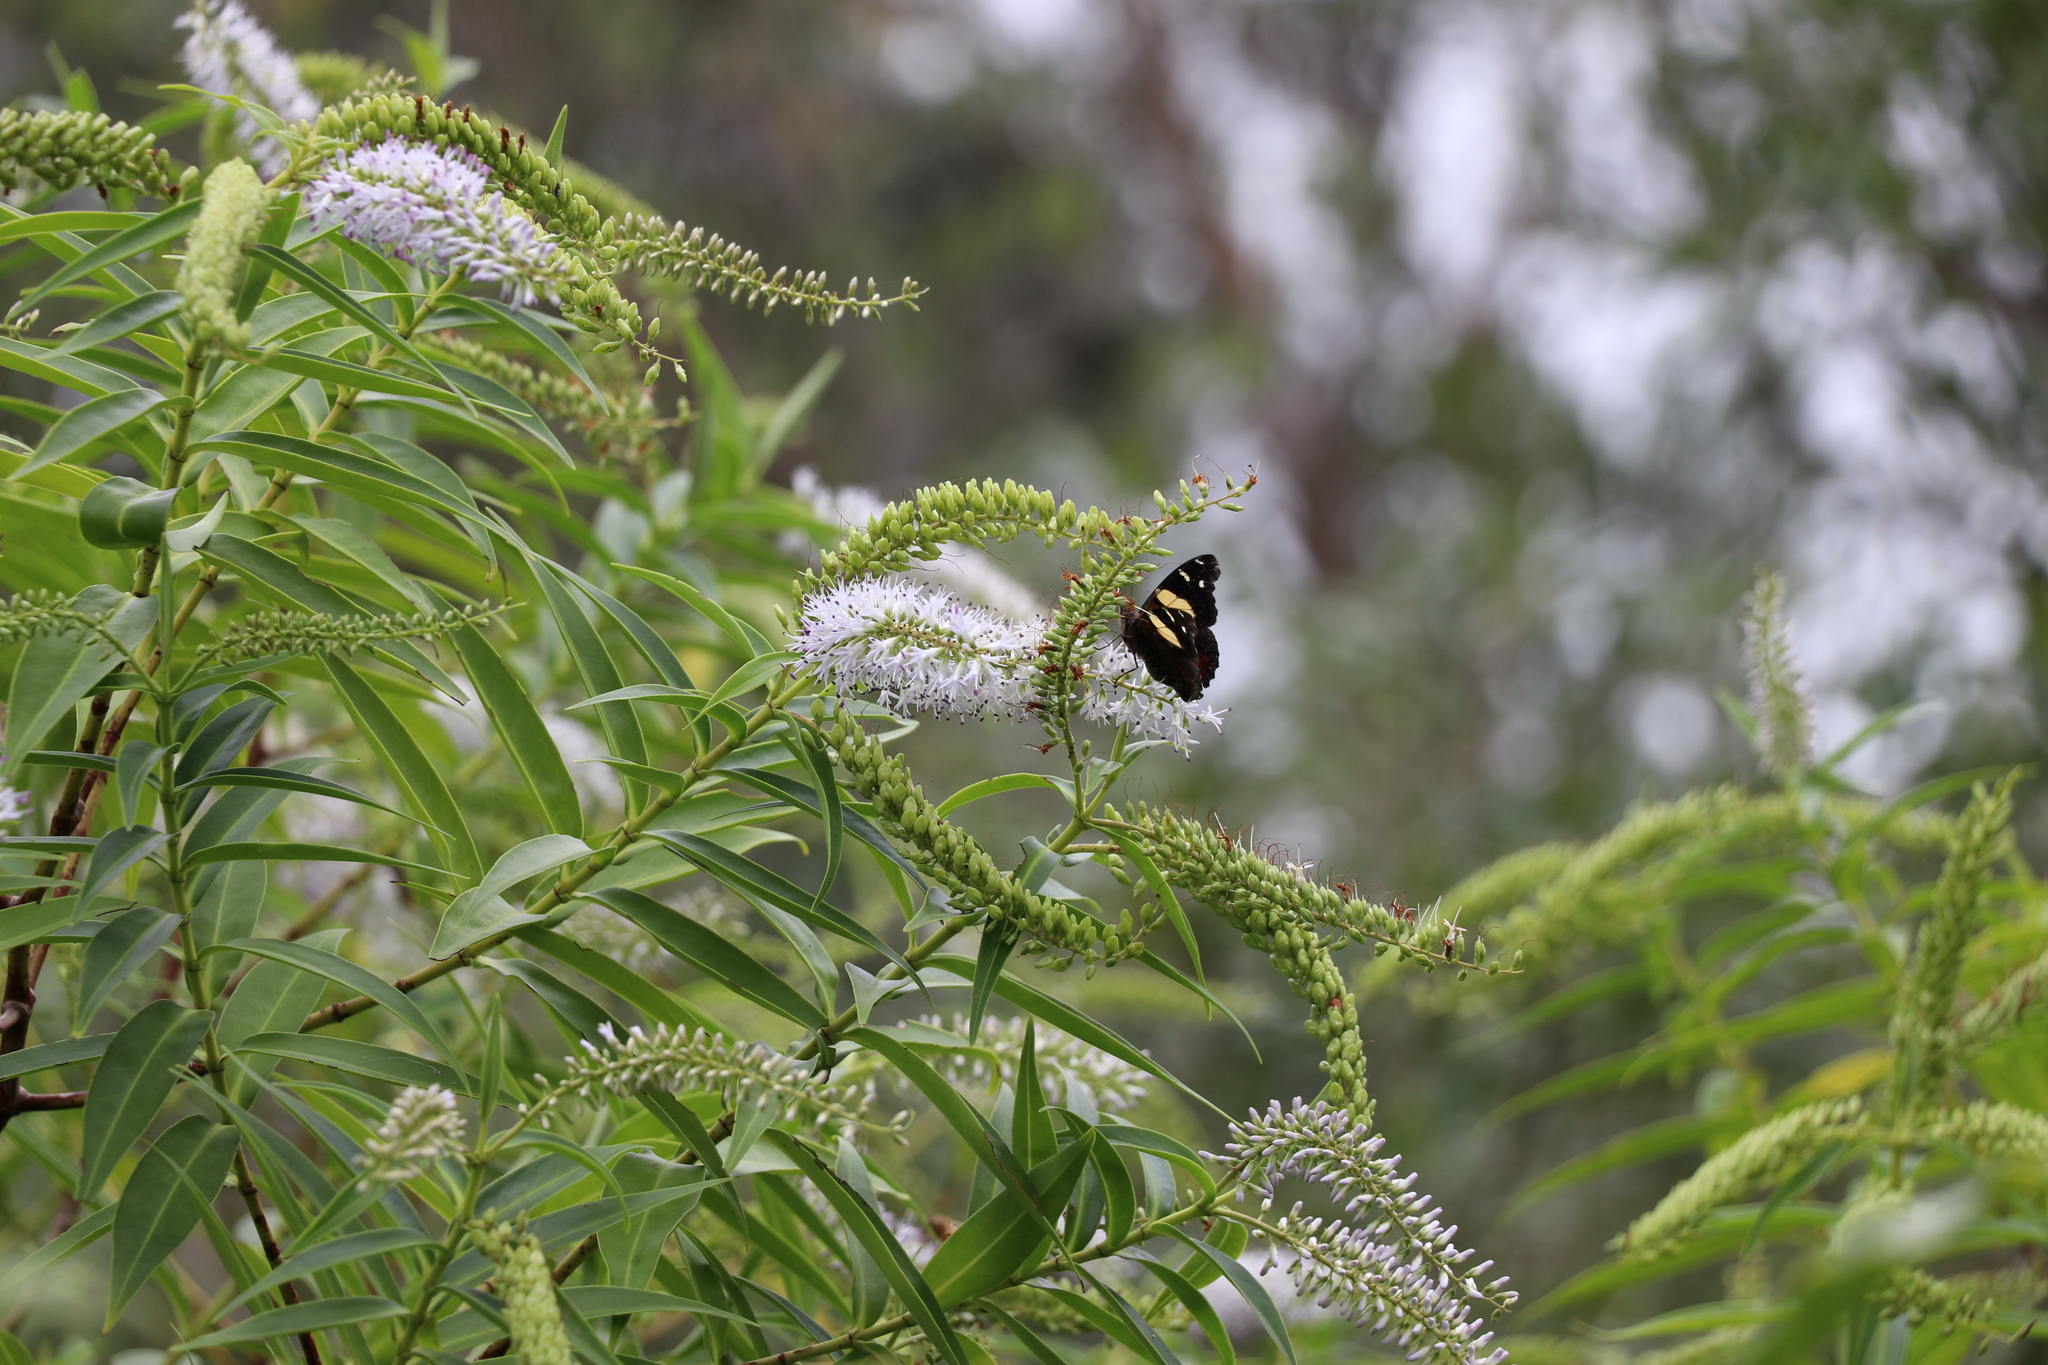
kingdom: Animalia
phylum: Arthropoda
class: Insecta
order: Lepidoptera
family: Nymphalidae
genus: Vanessa
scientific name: Vanessa itea
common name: Yellow admiral
